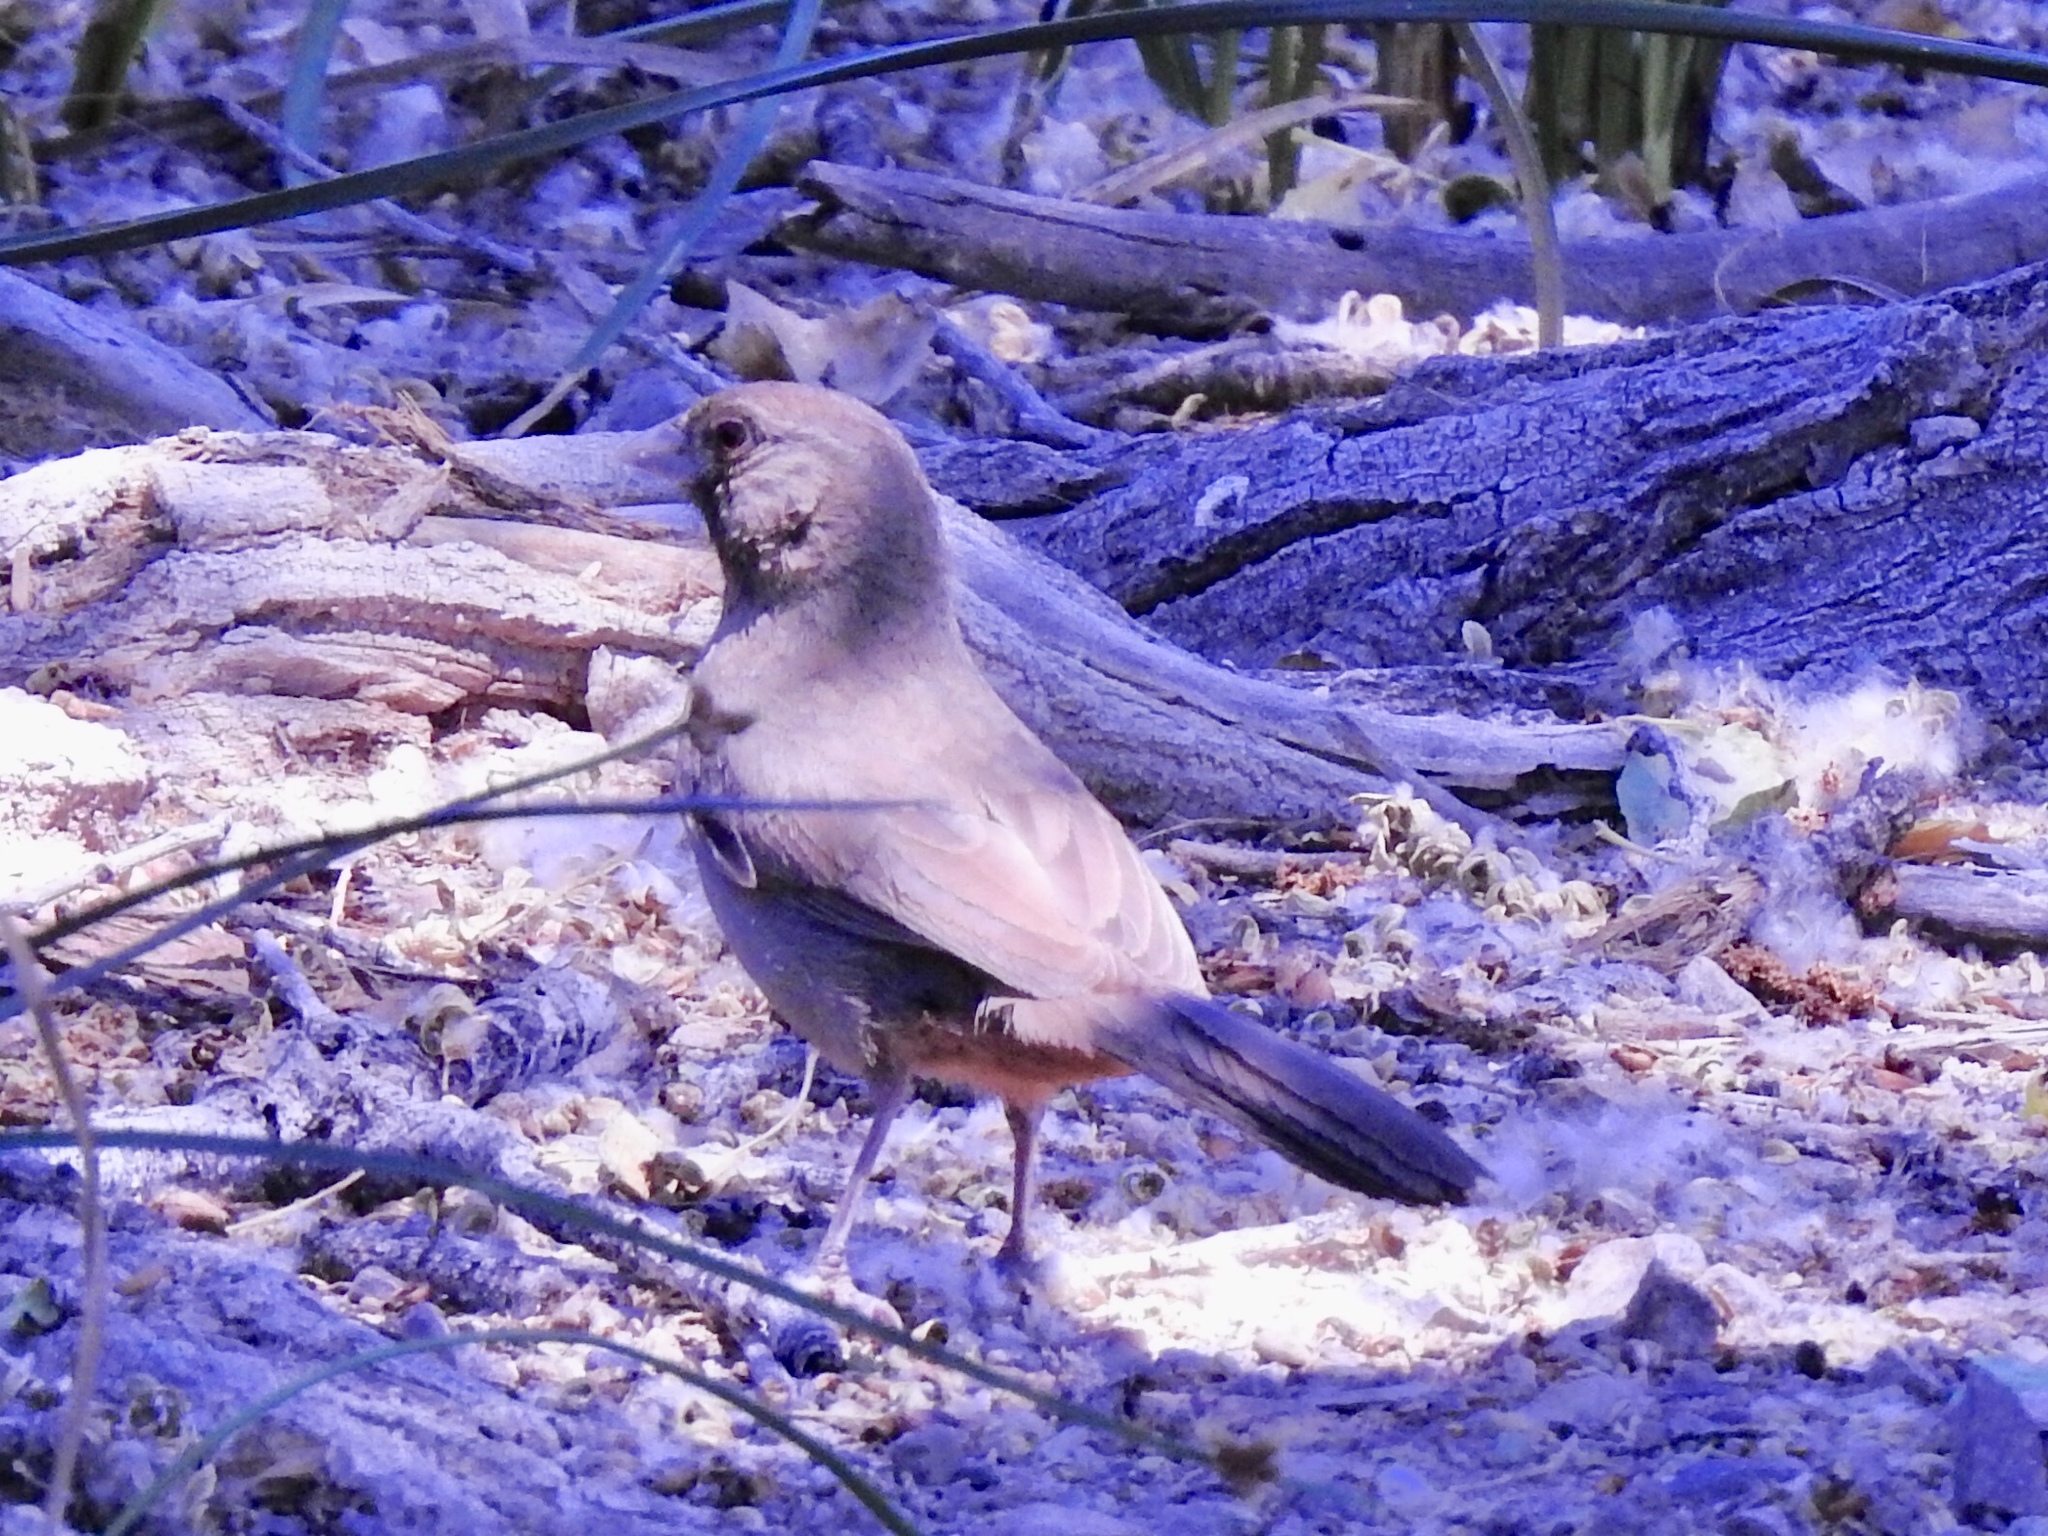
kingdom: Animalia
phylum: Chordata
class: Aves
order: Passeriformes
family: Passerellidae
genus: Melozone
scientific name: Melozone aberti
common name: Abert's towhee
